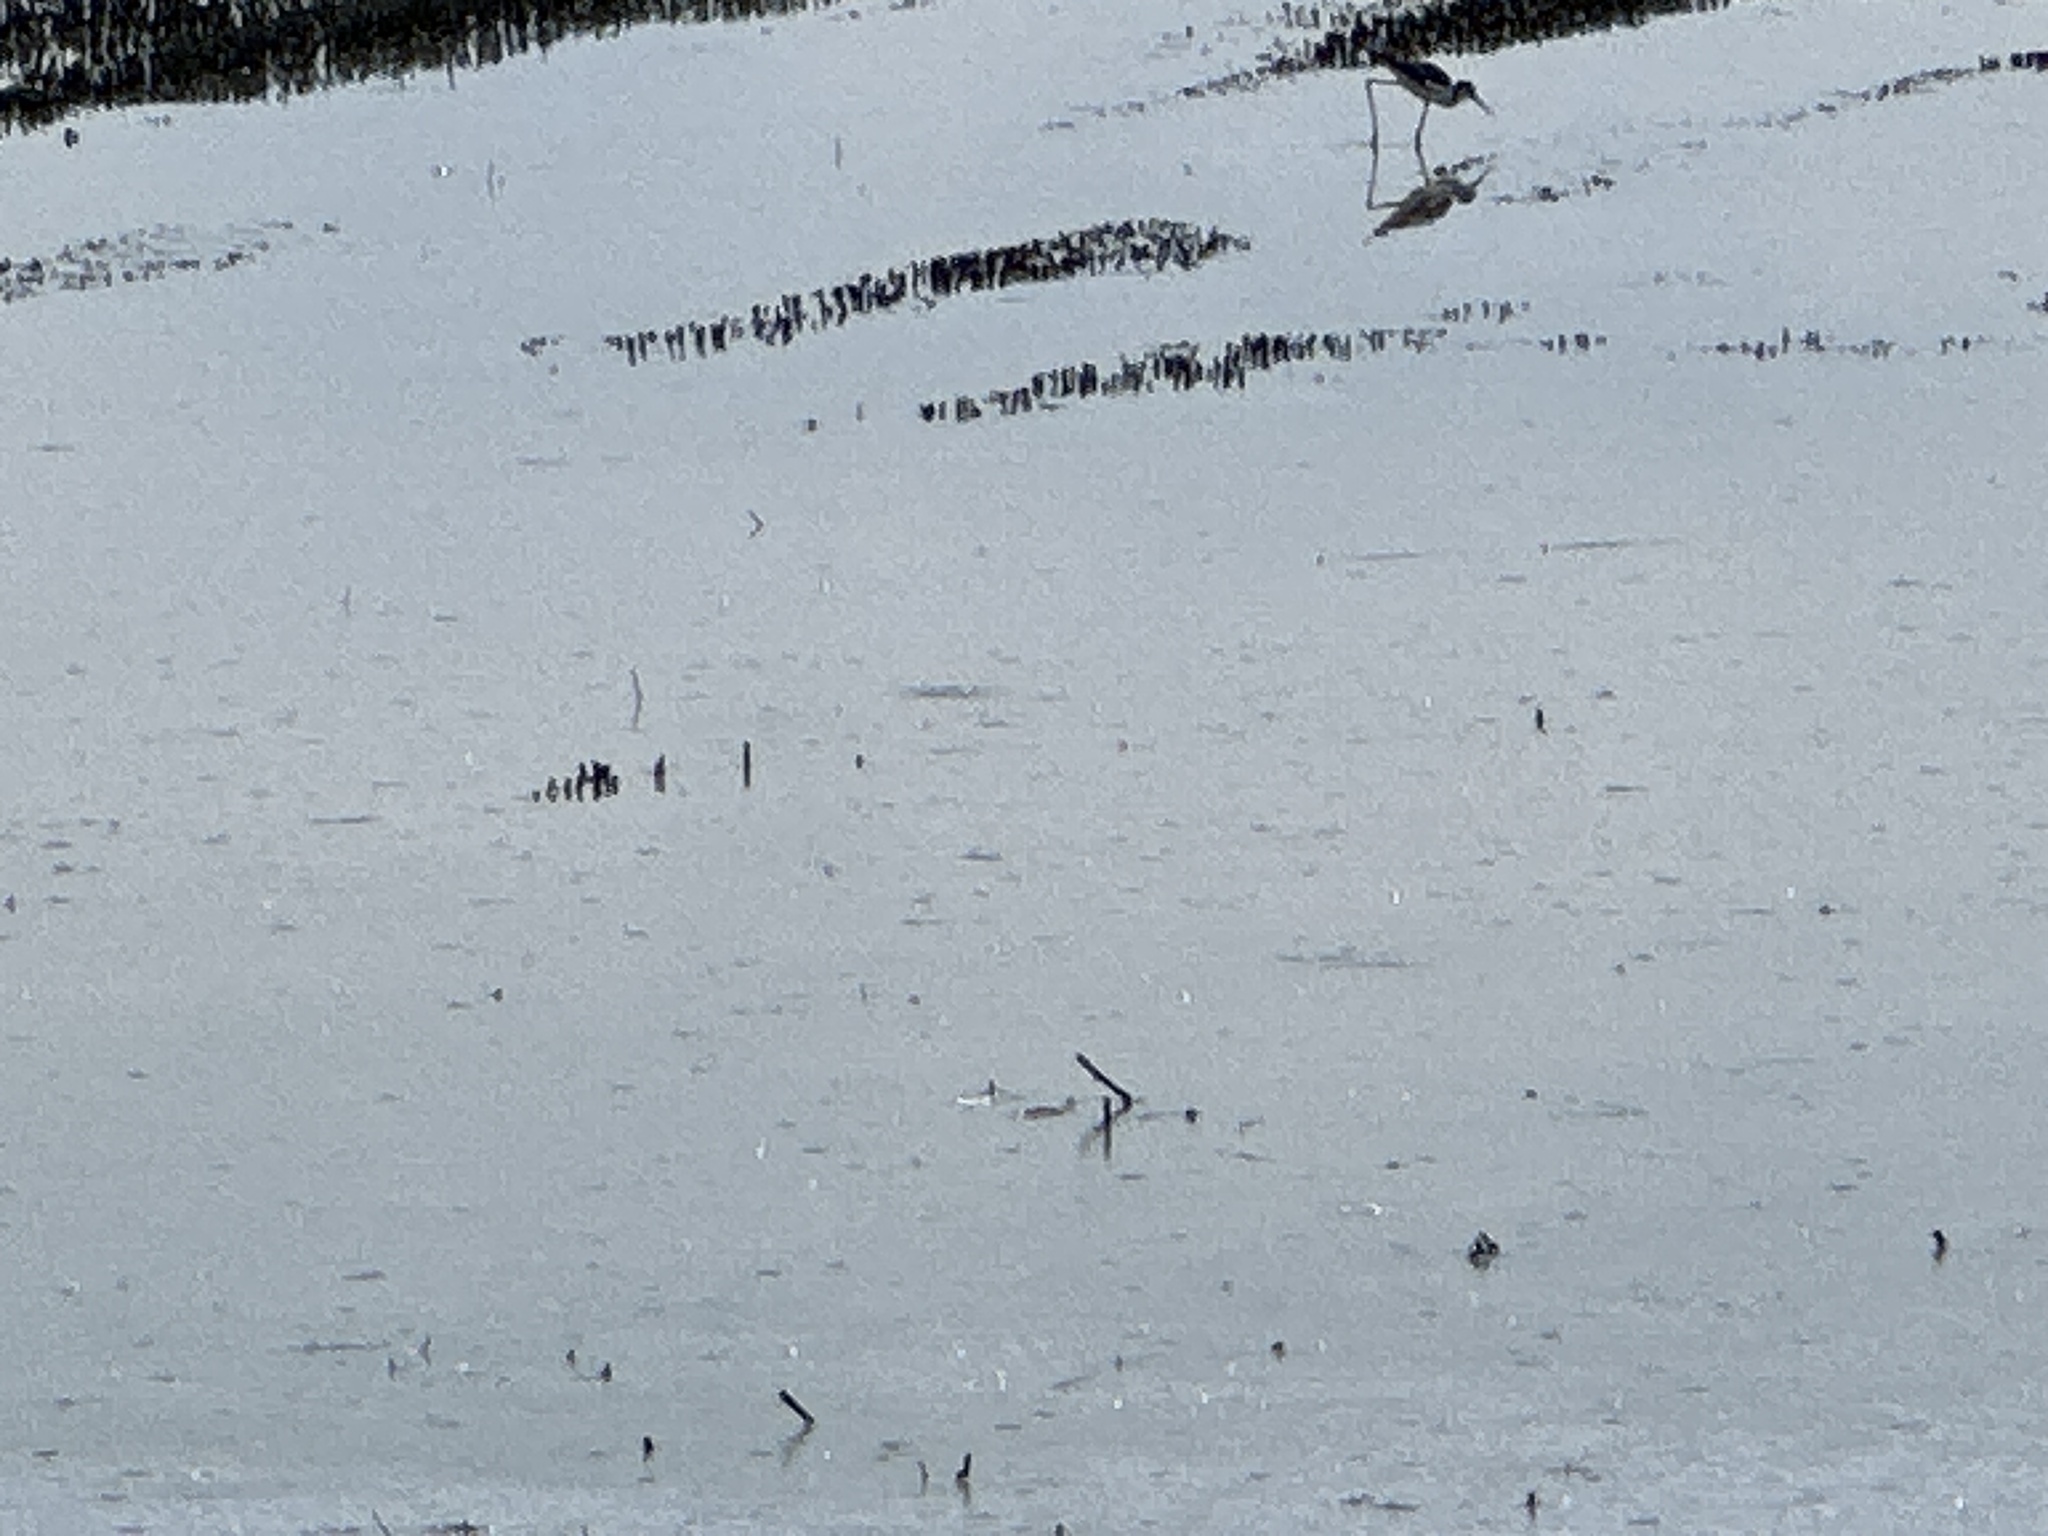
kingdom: Animalia
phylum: Chordata
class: Aves
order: Charadriiformes
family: Recurvirostridae
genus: Himantopus
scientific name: Himantopus mexicanus
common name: Black-necked stilt
